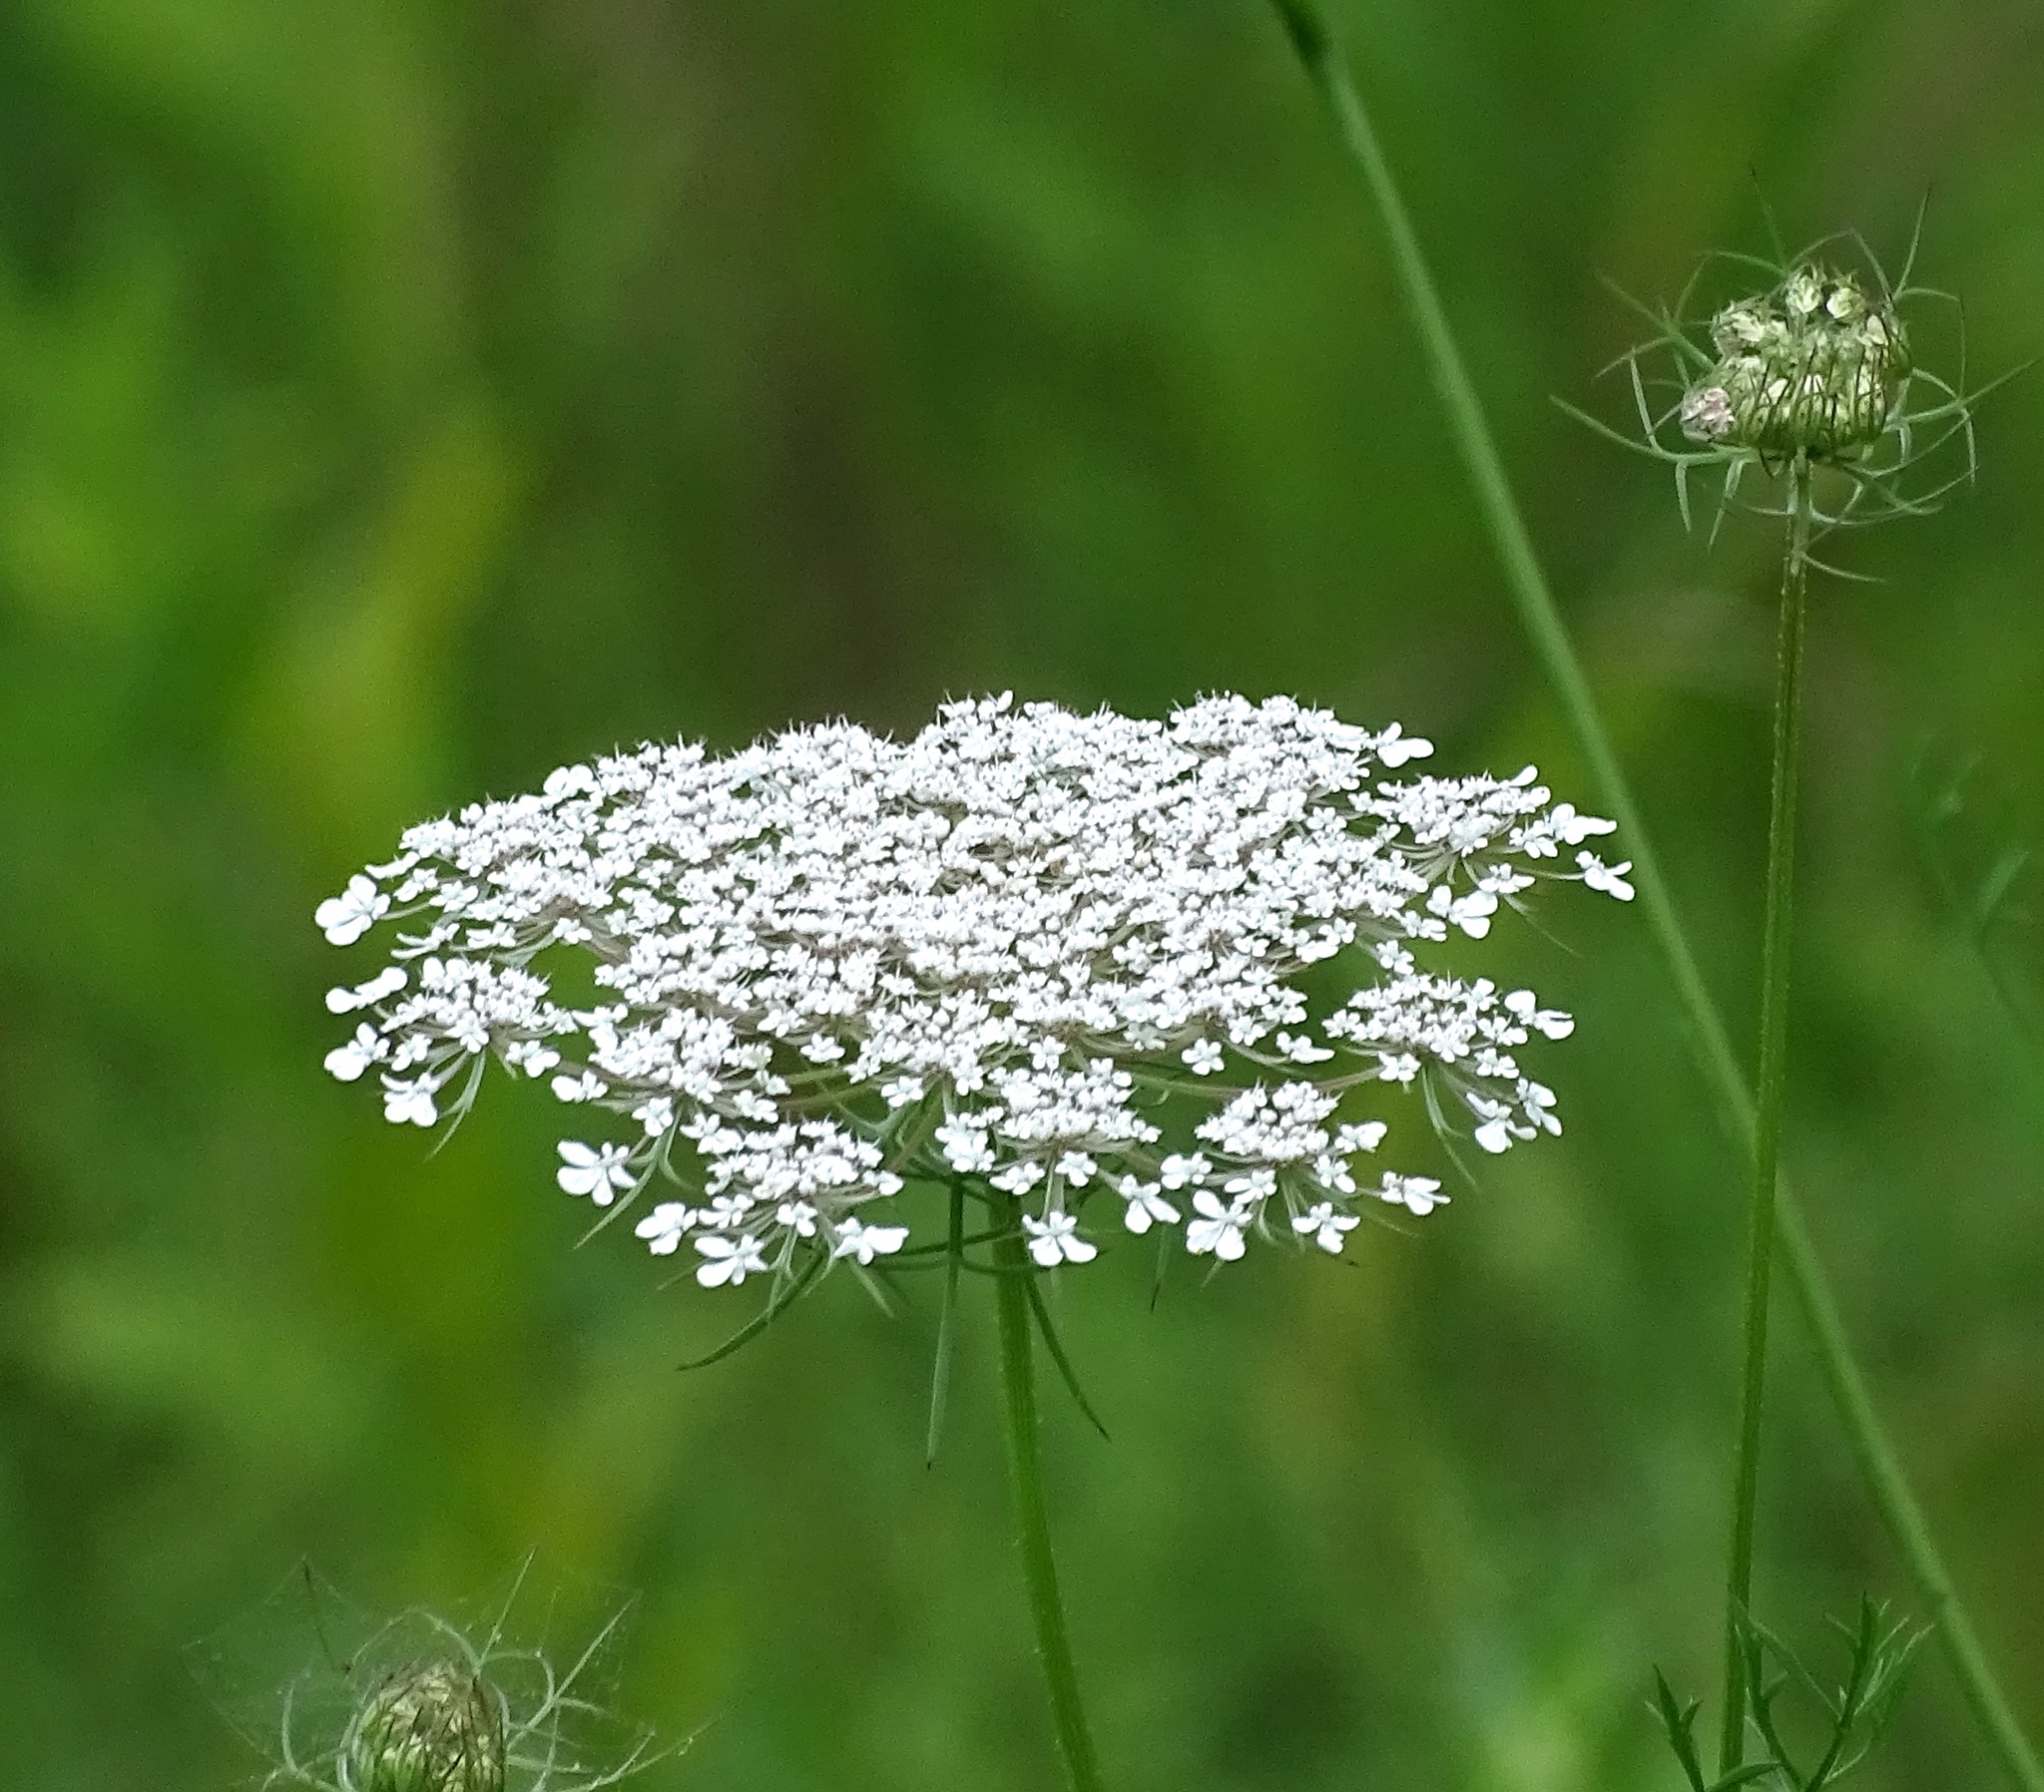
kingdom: Plantae
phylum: Tracheophyta
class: Magnoliopsida
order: Apiales
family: Apiaceae
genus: Daucus
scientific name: Daucus carota
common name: Wild carrot
